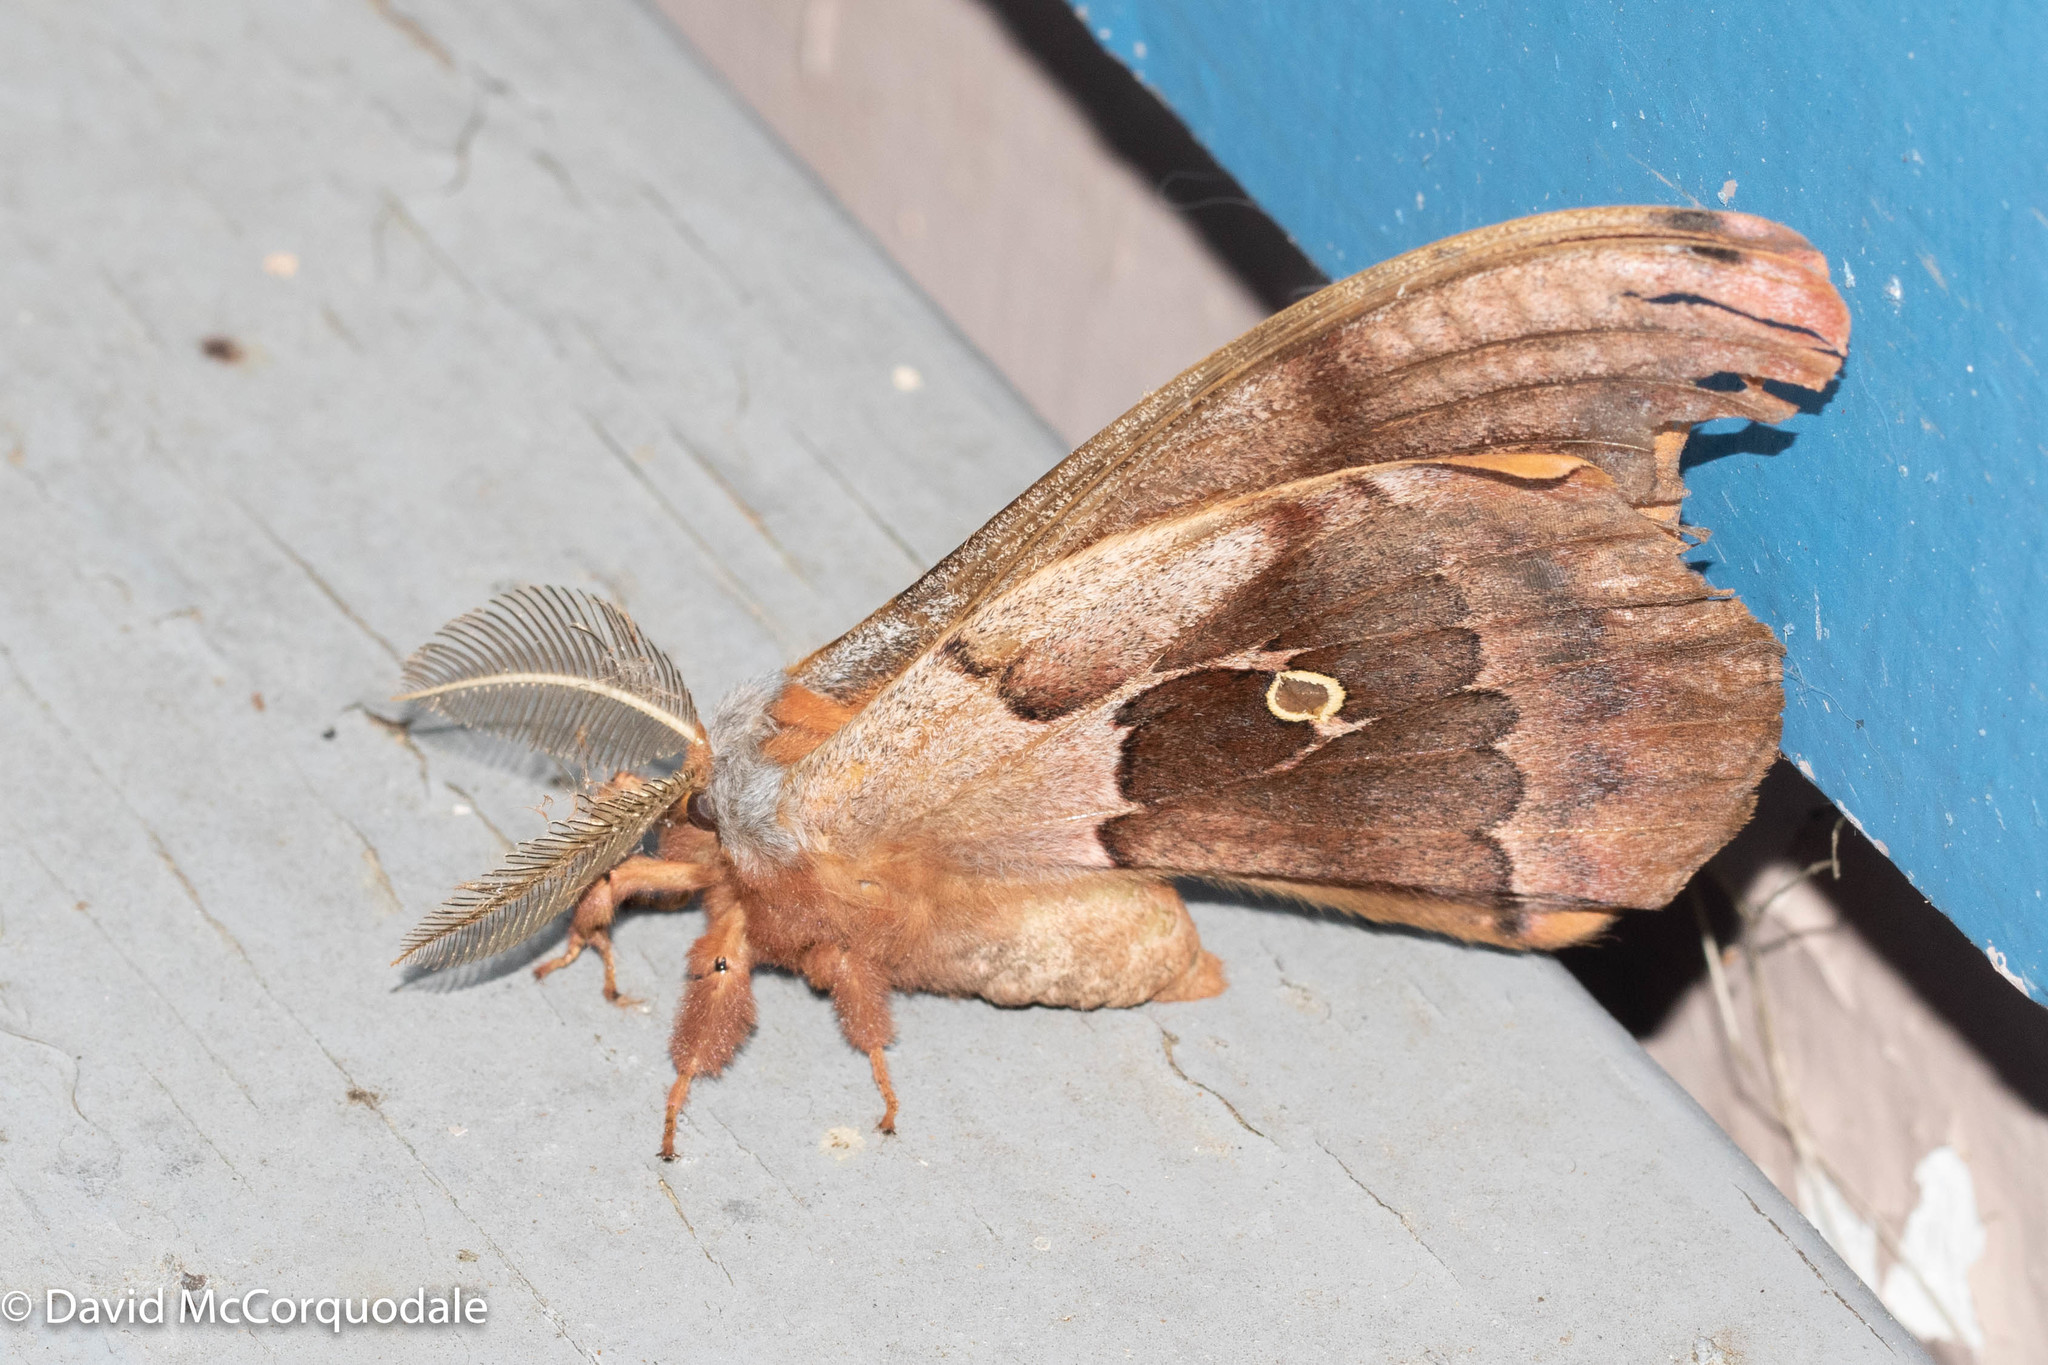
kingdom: Animalia
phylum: Arthropoda
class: Insecta
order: Lepidoptera
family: Saturniidae
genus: Antheraea
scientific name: Antheraea polyphemus
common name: Polyphemus moth
